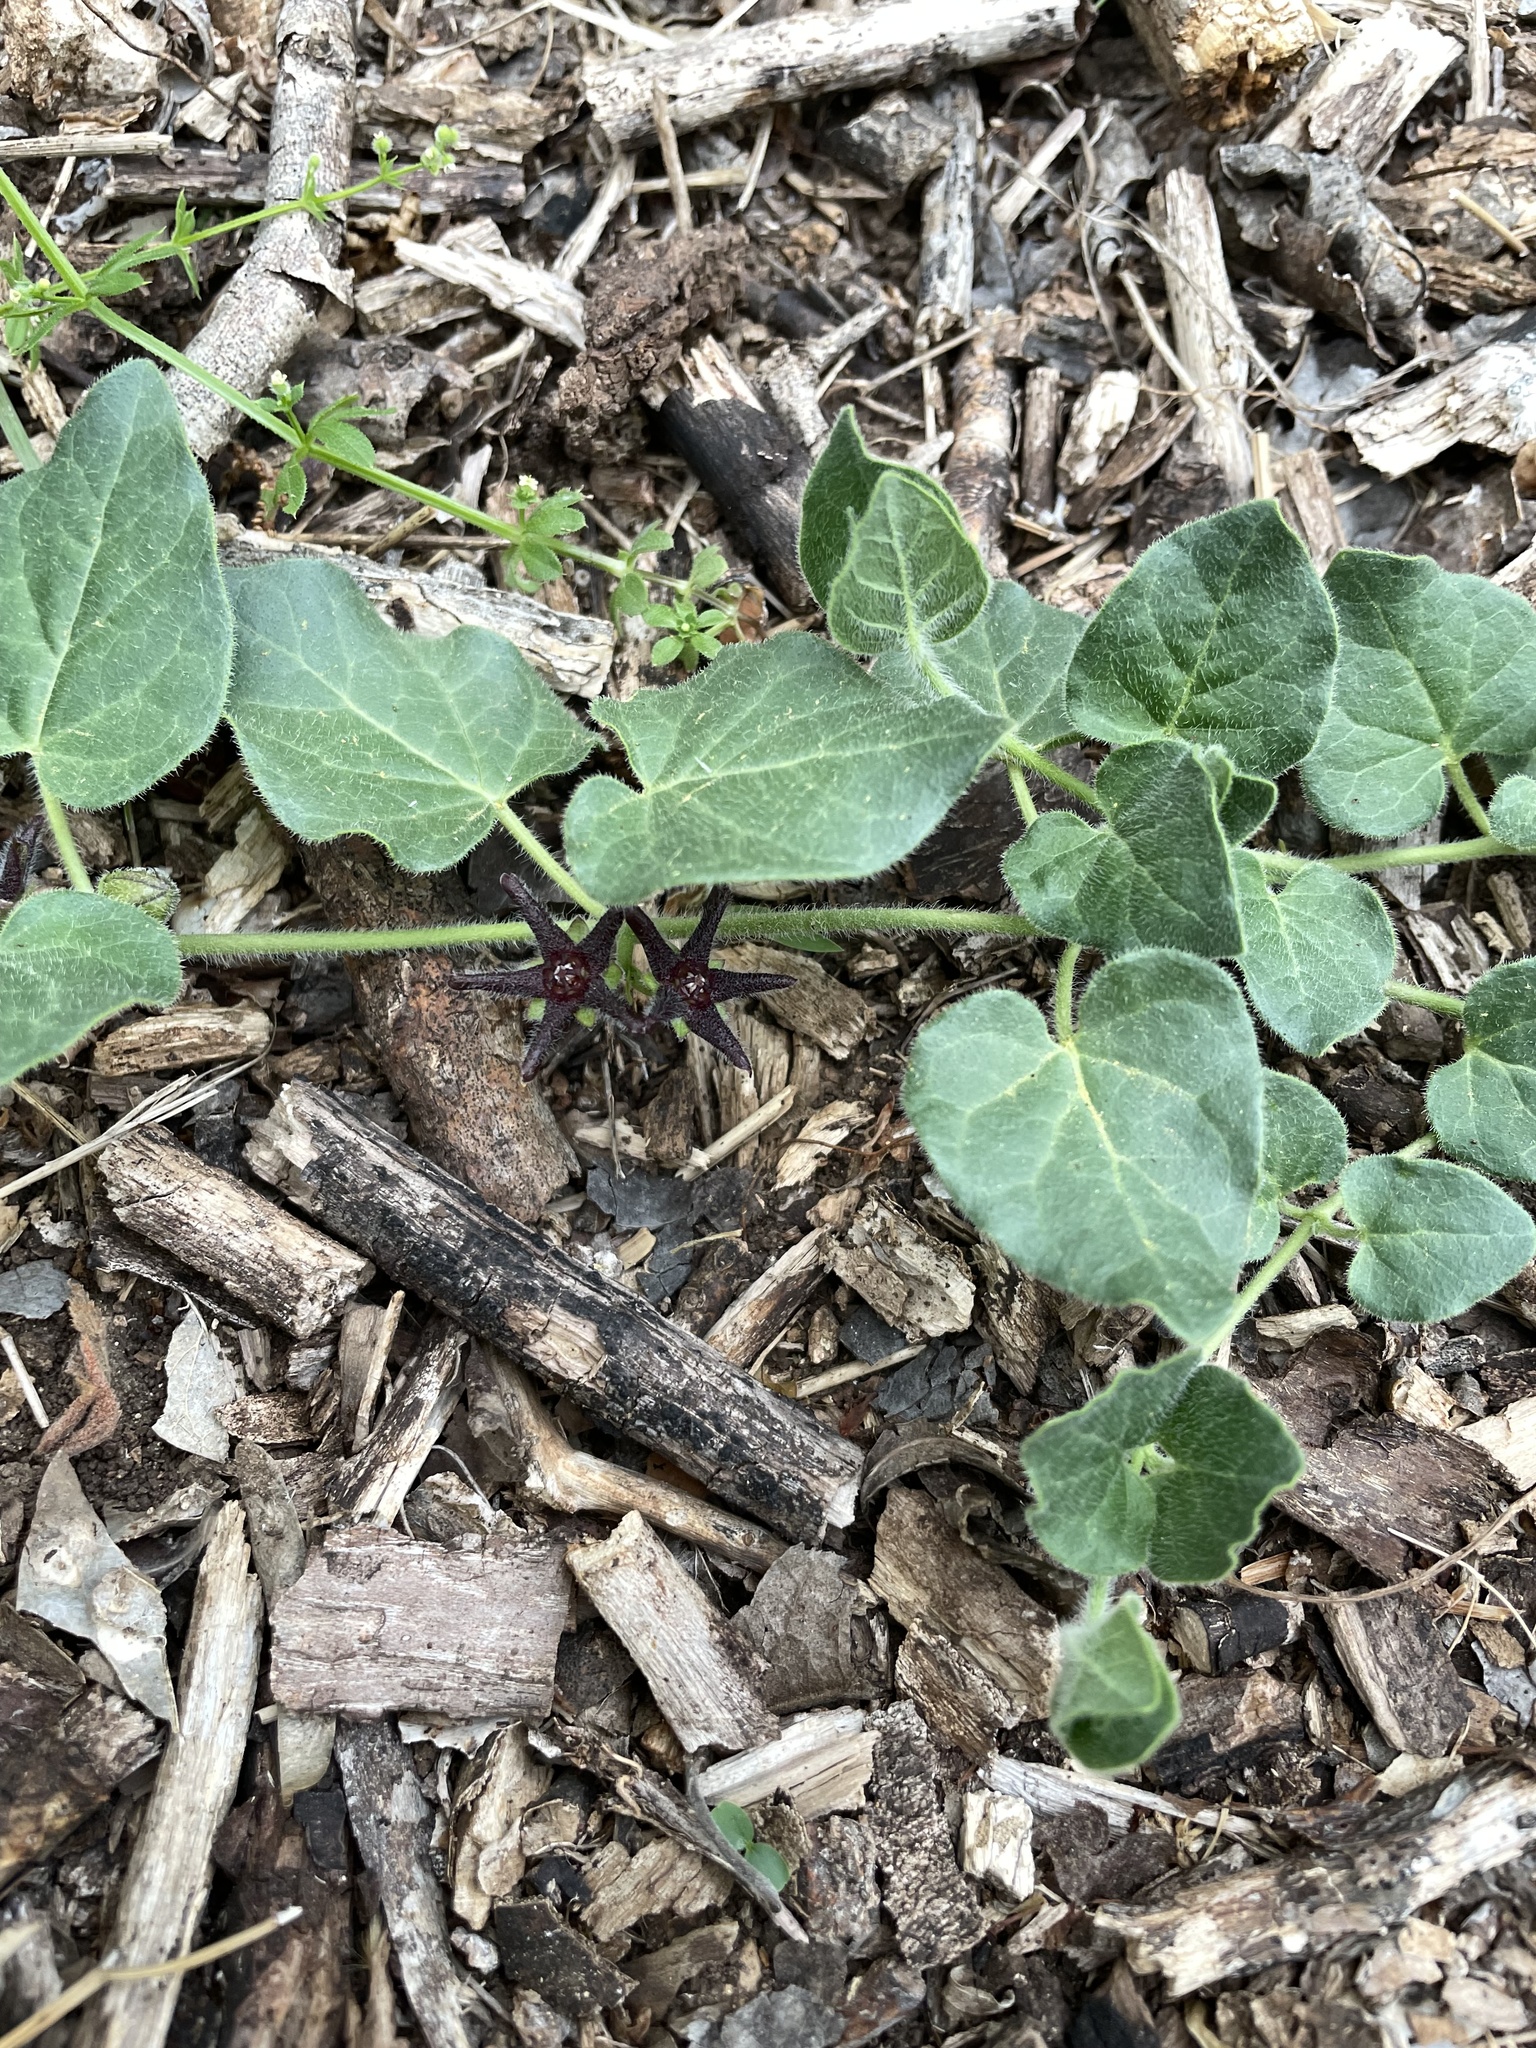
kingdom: Plantae
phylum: Tracheophyta
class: Magnoliopsida
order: Gentianales
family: Apocynaceae
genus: Chthamalia
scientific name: Chthamalia biflora
